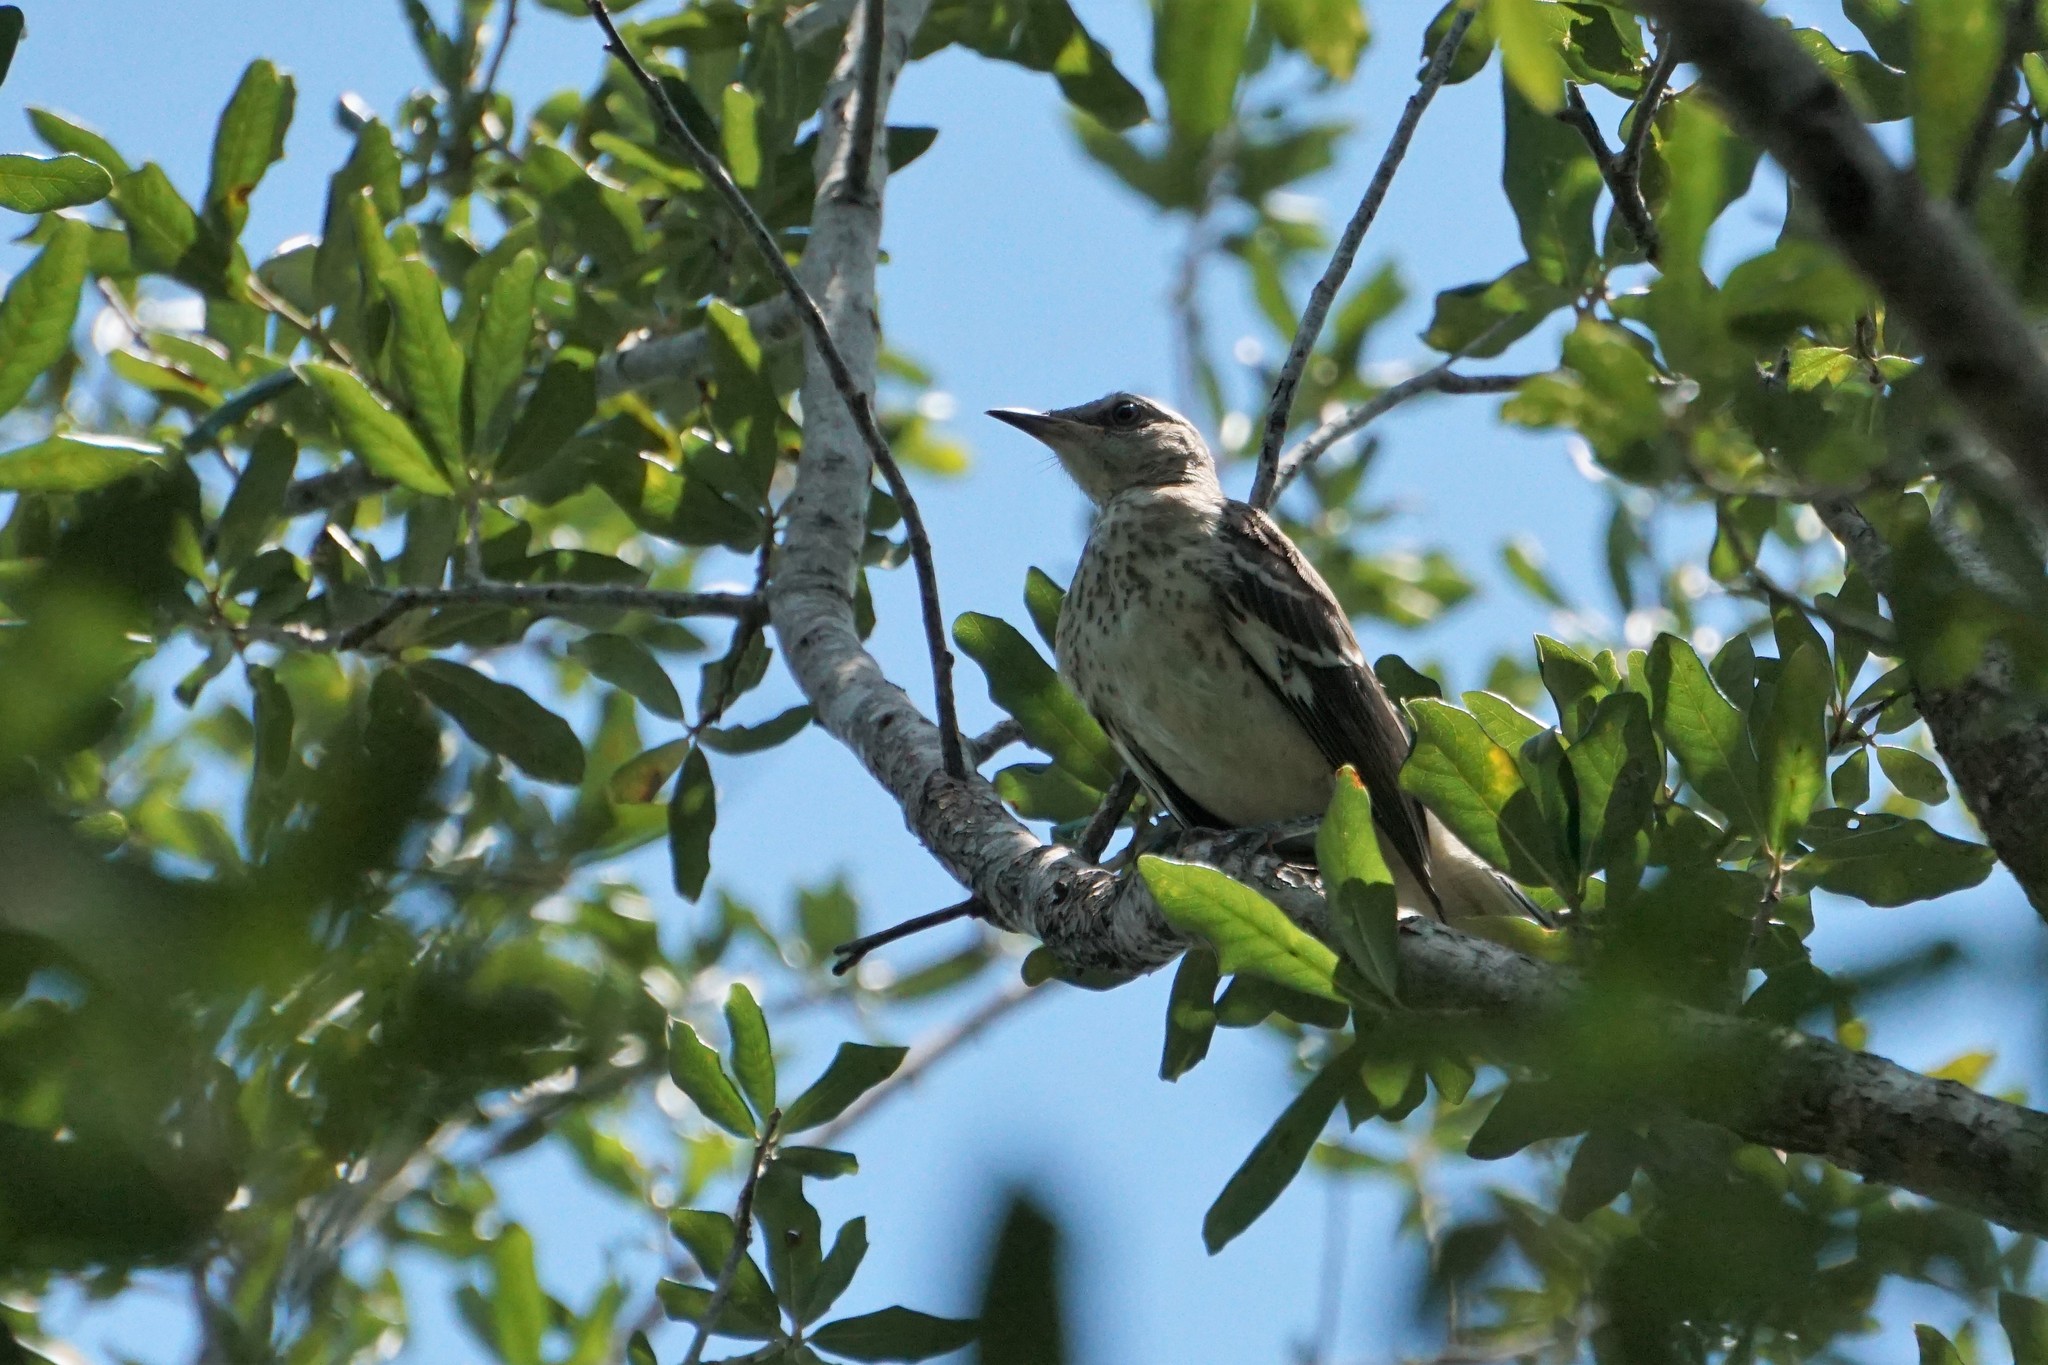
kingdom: Animalia
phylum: Chordata
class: Aves
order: Passeriformes
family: Mimidae
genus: Mimus
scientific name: Mimus polyglottos
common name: Northern mockingbird
